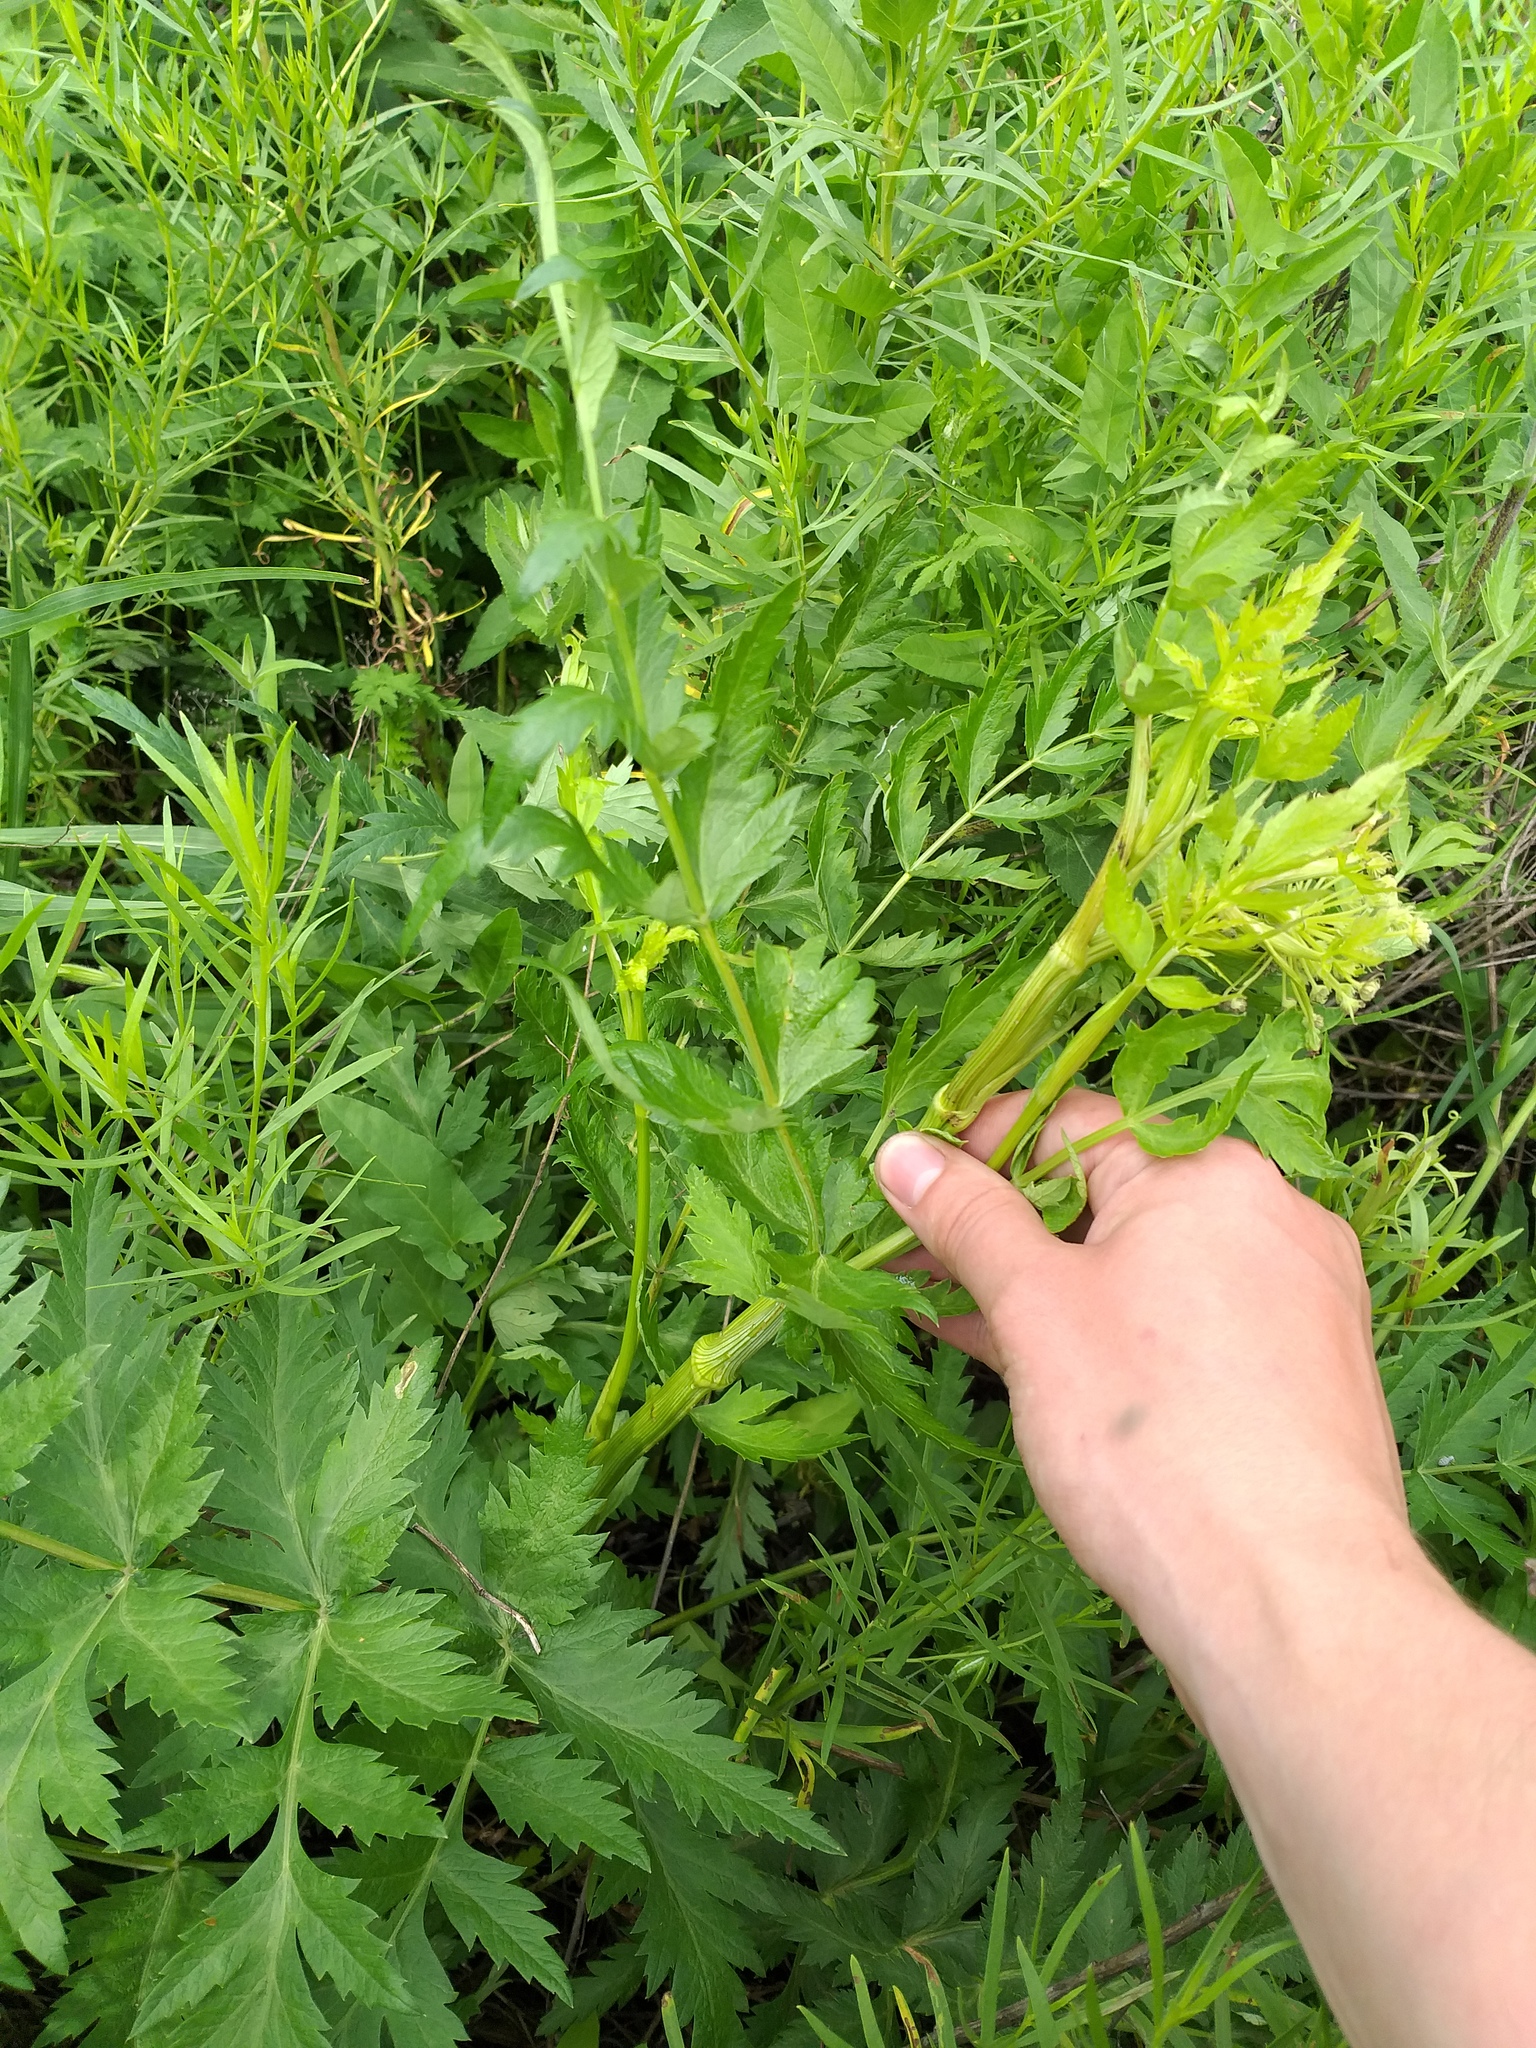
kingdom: Plantae
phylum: Tracheophyta
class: Magnoliopsida
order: Apiales
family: Apiaceae
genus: Seseli
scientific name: Seseli libanotis
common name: Mooncarrot
